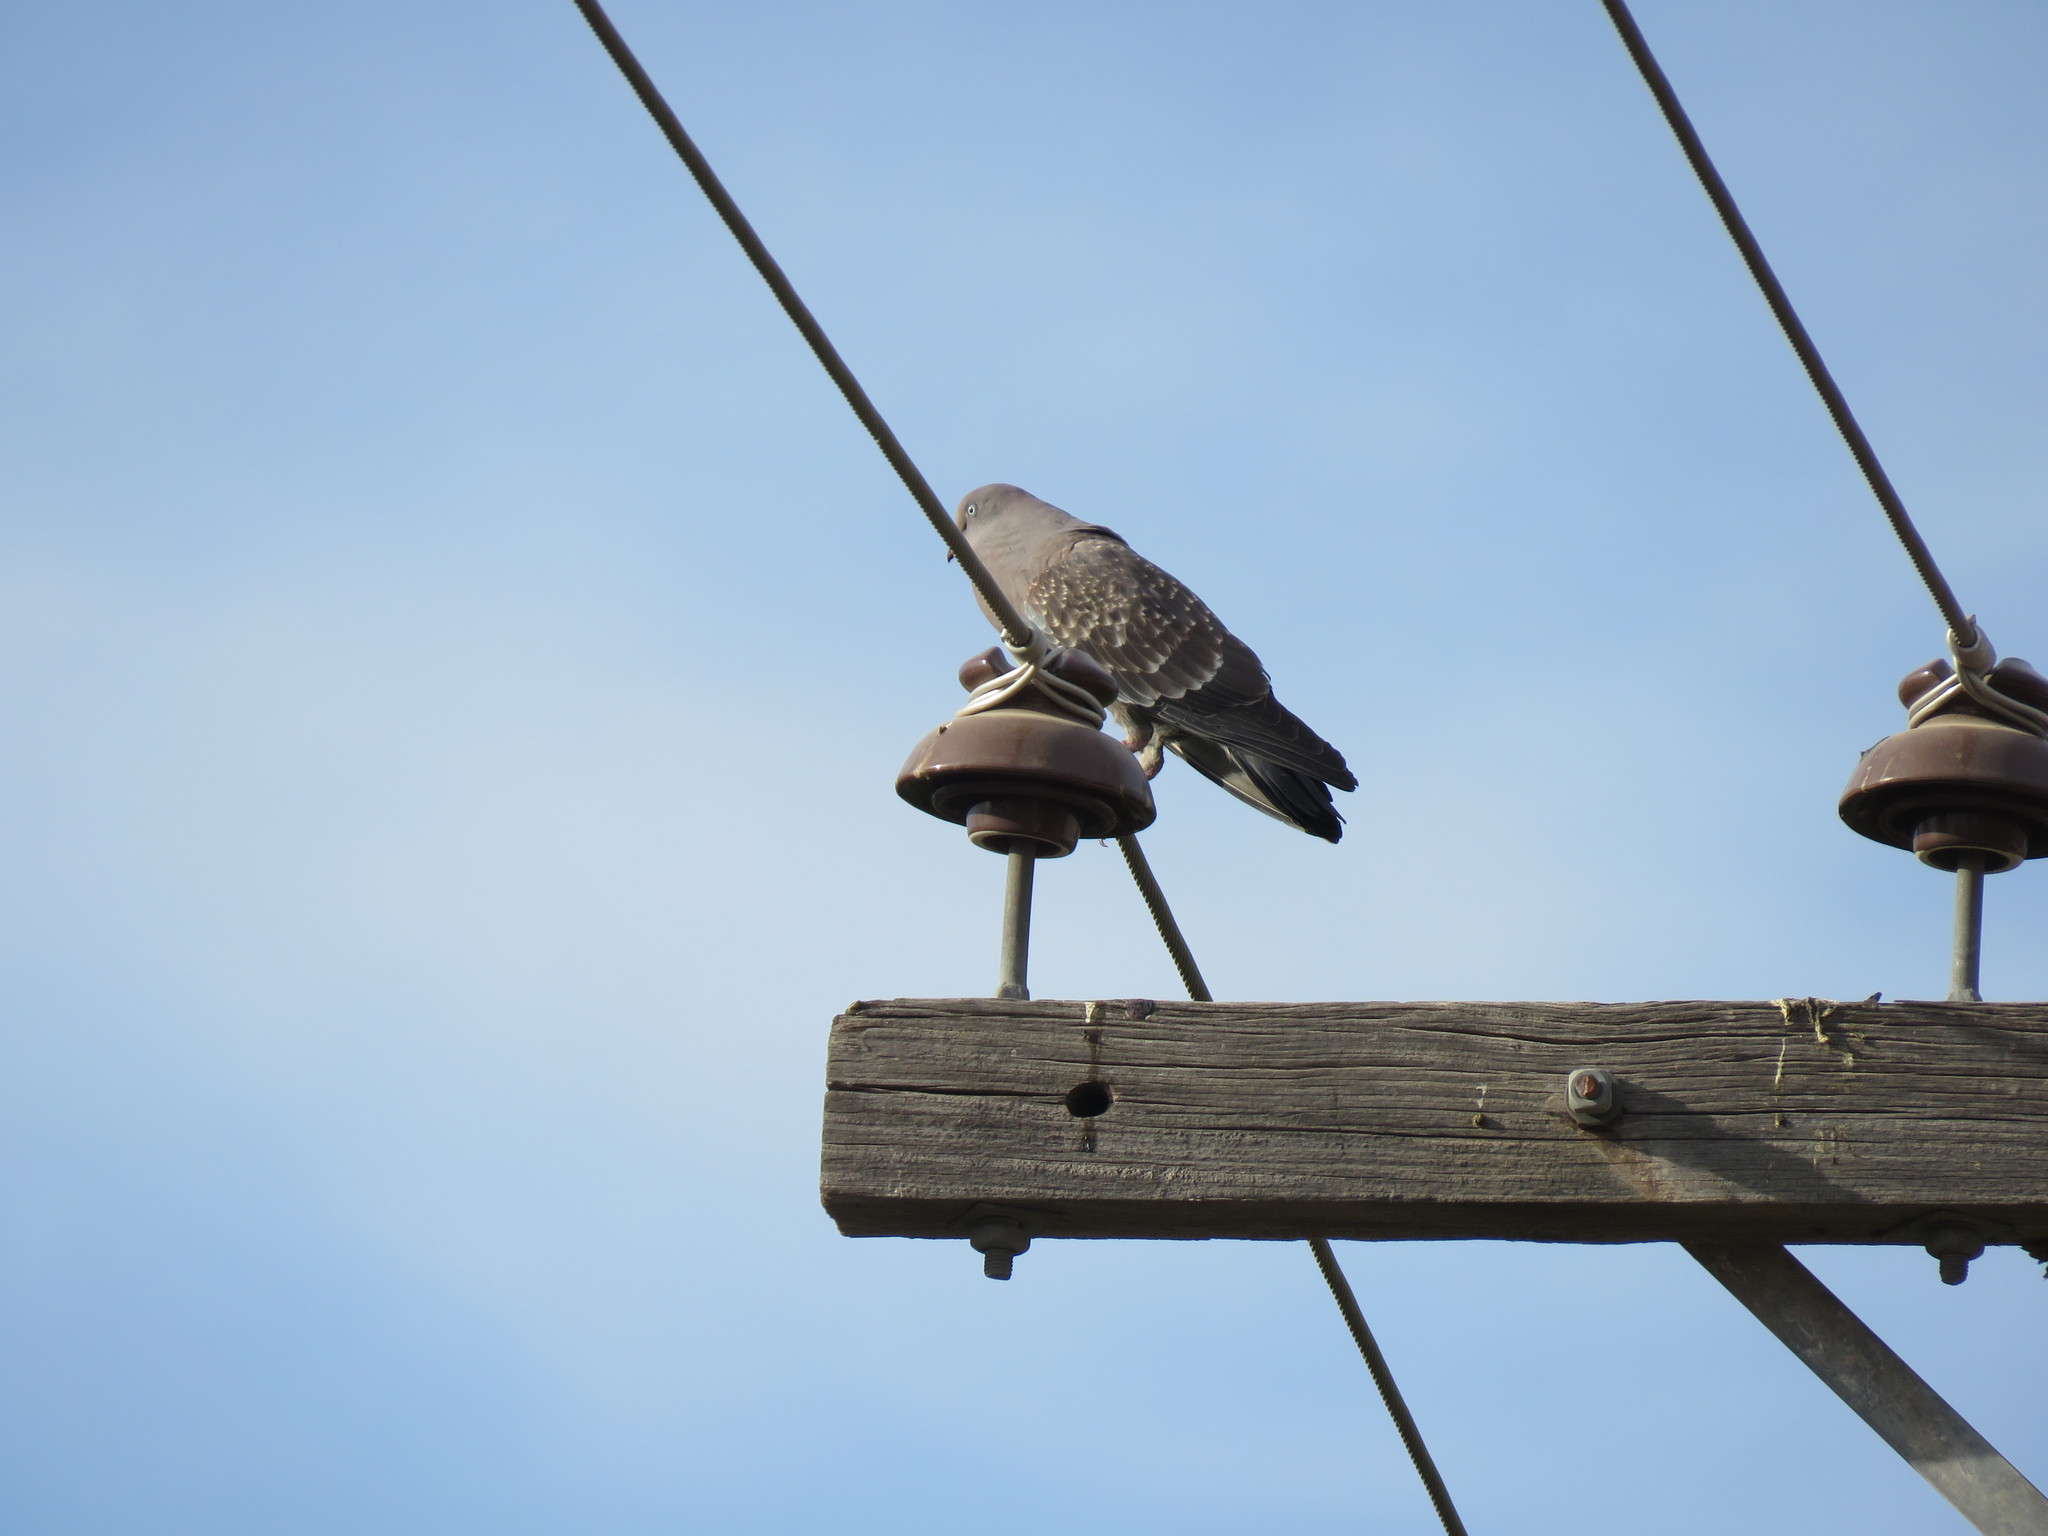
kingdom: Animalia
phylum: Chordata
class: Aves
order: Columbiformes
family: Columbidae
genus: Patagioenas
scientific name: Patagioenas maculosa
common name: Spot-winged pigeon
